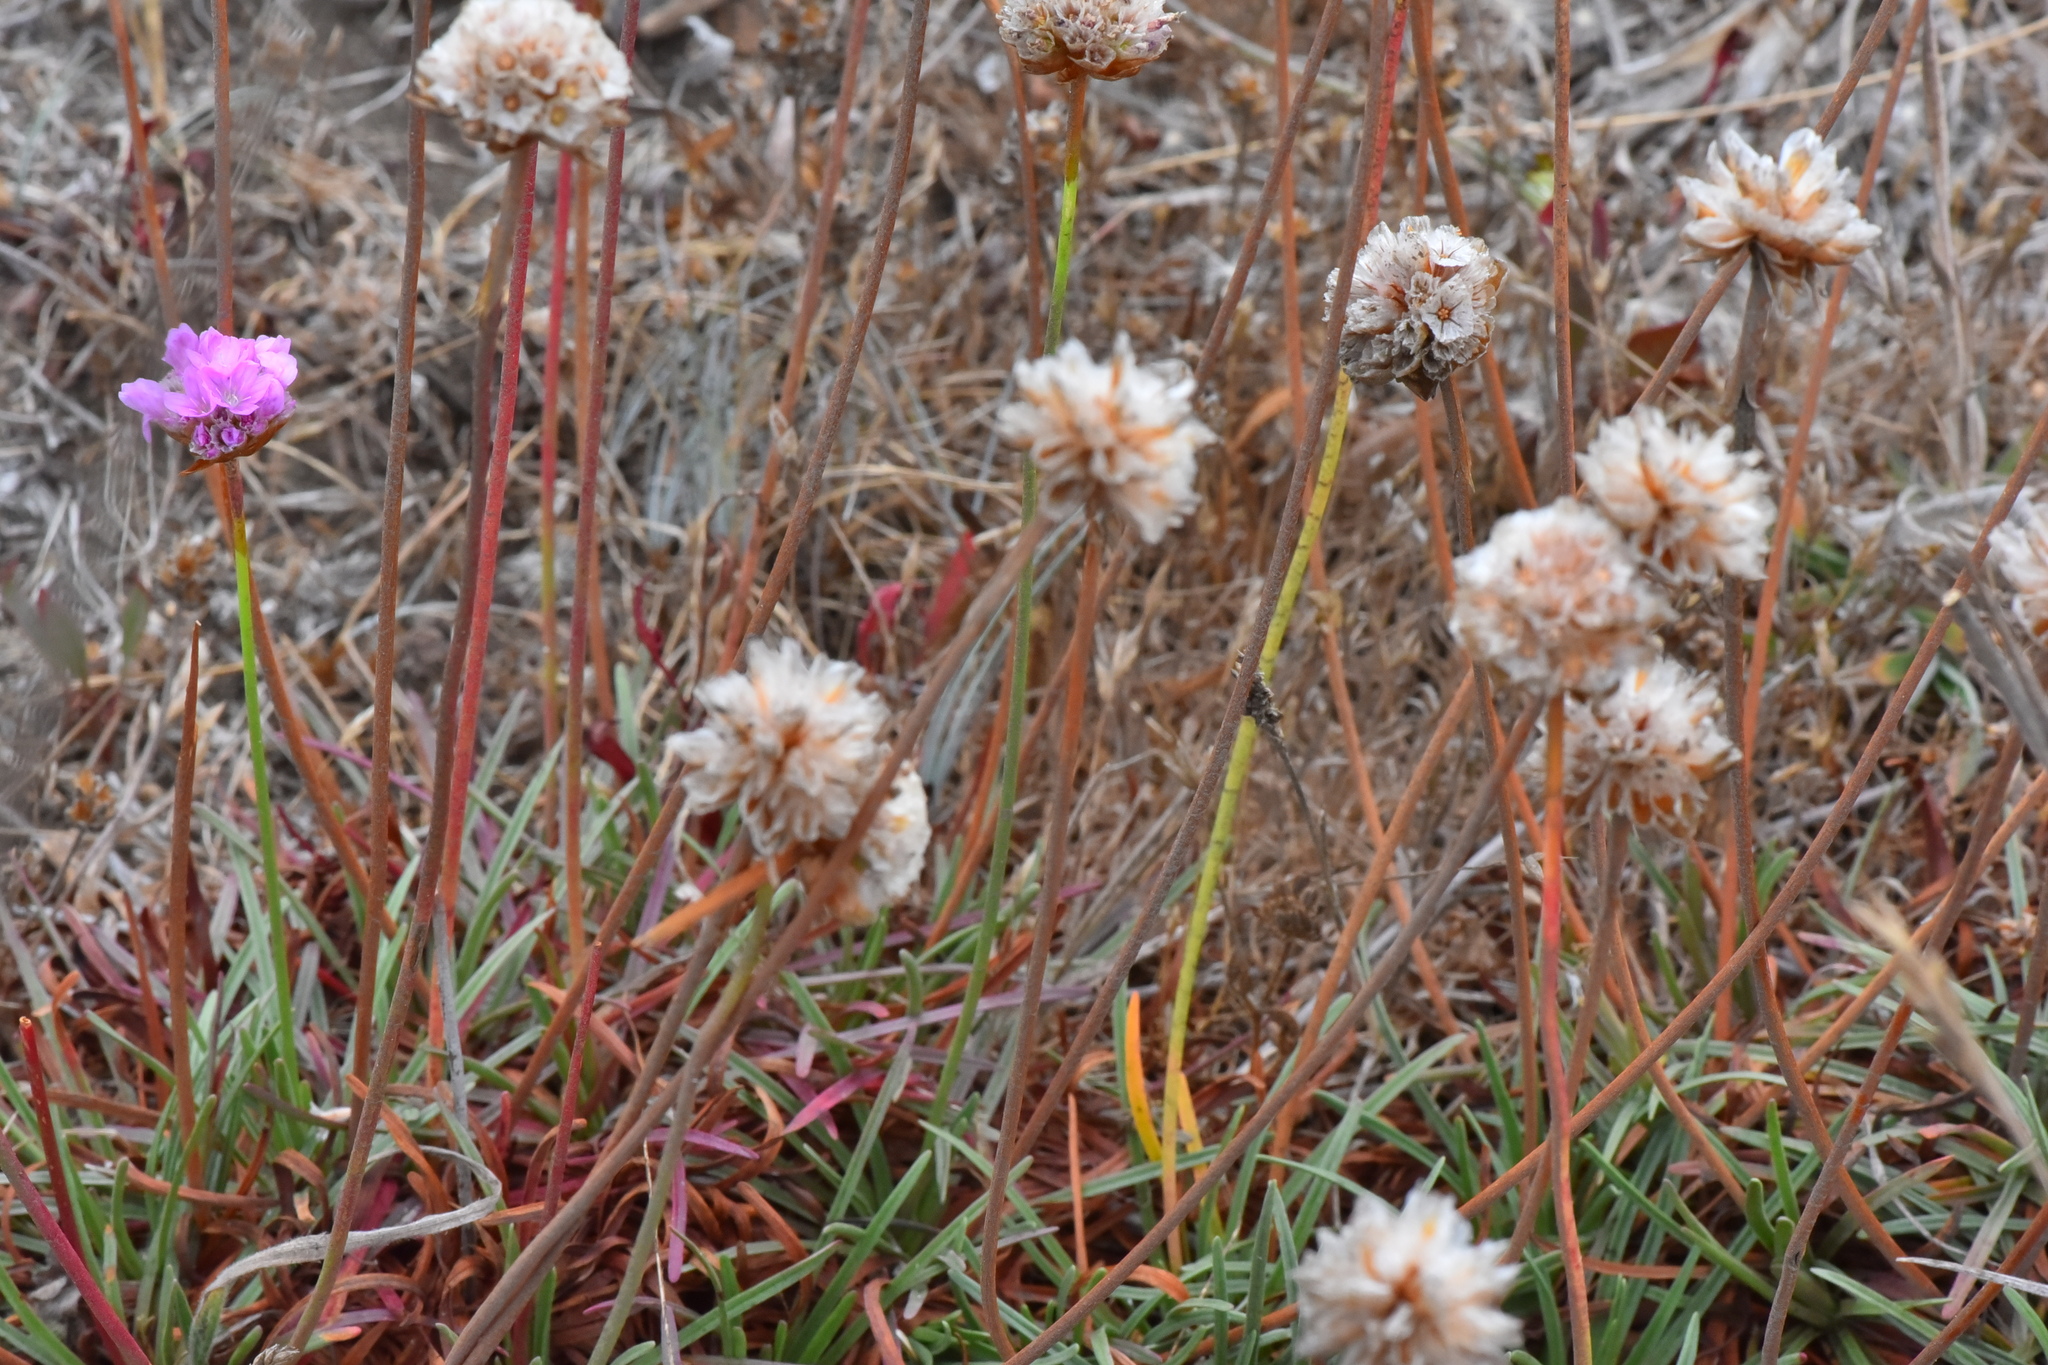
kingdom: Plantae
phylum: Tracheophyta
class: Magnoliopsida
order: Caryophyllales
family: Plumbaginaceae
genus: Armeria
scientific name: Armeria maritima
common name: Thrift
